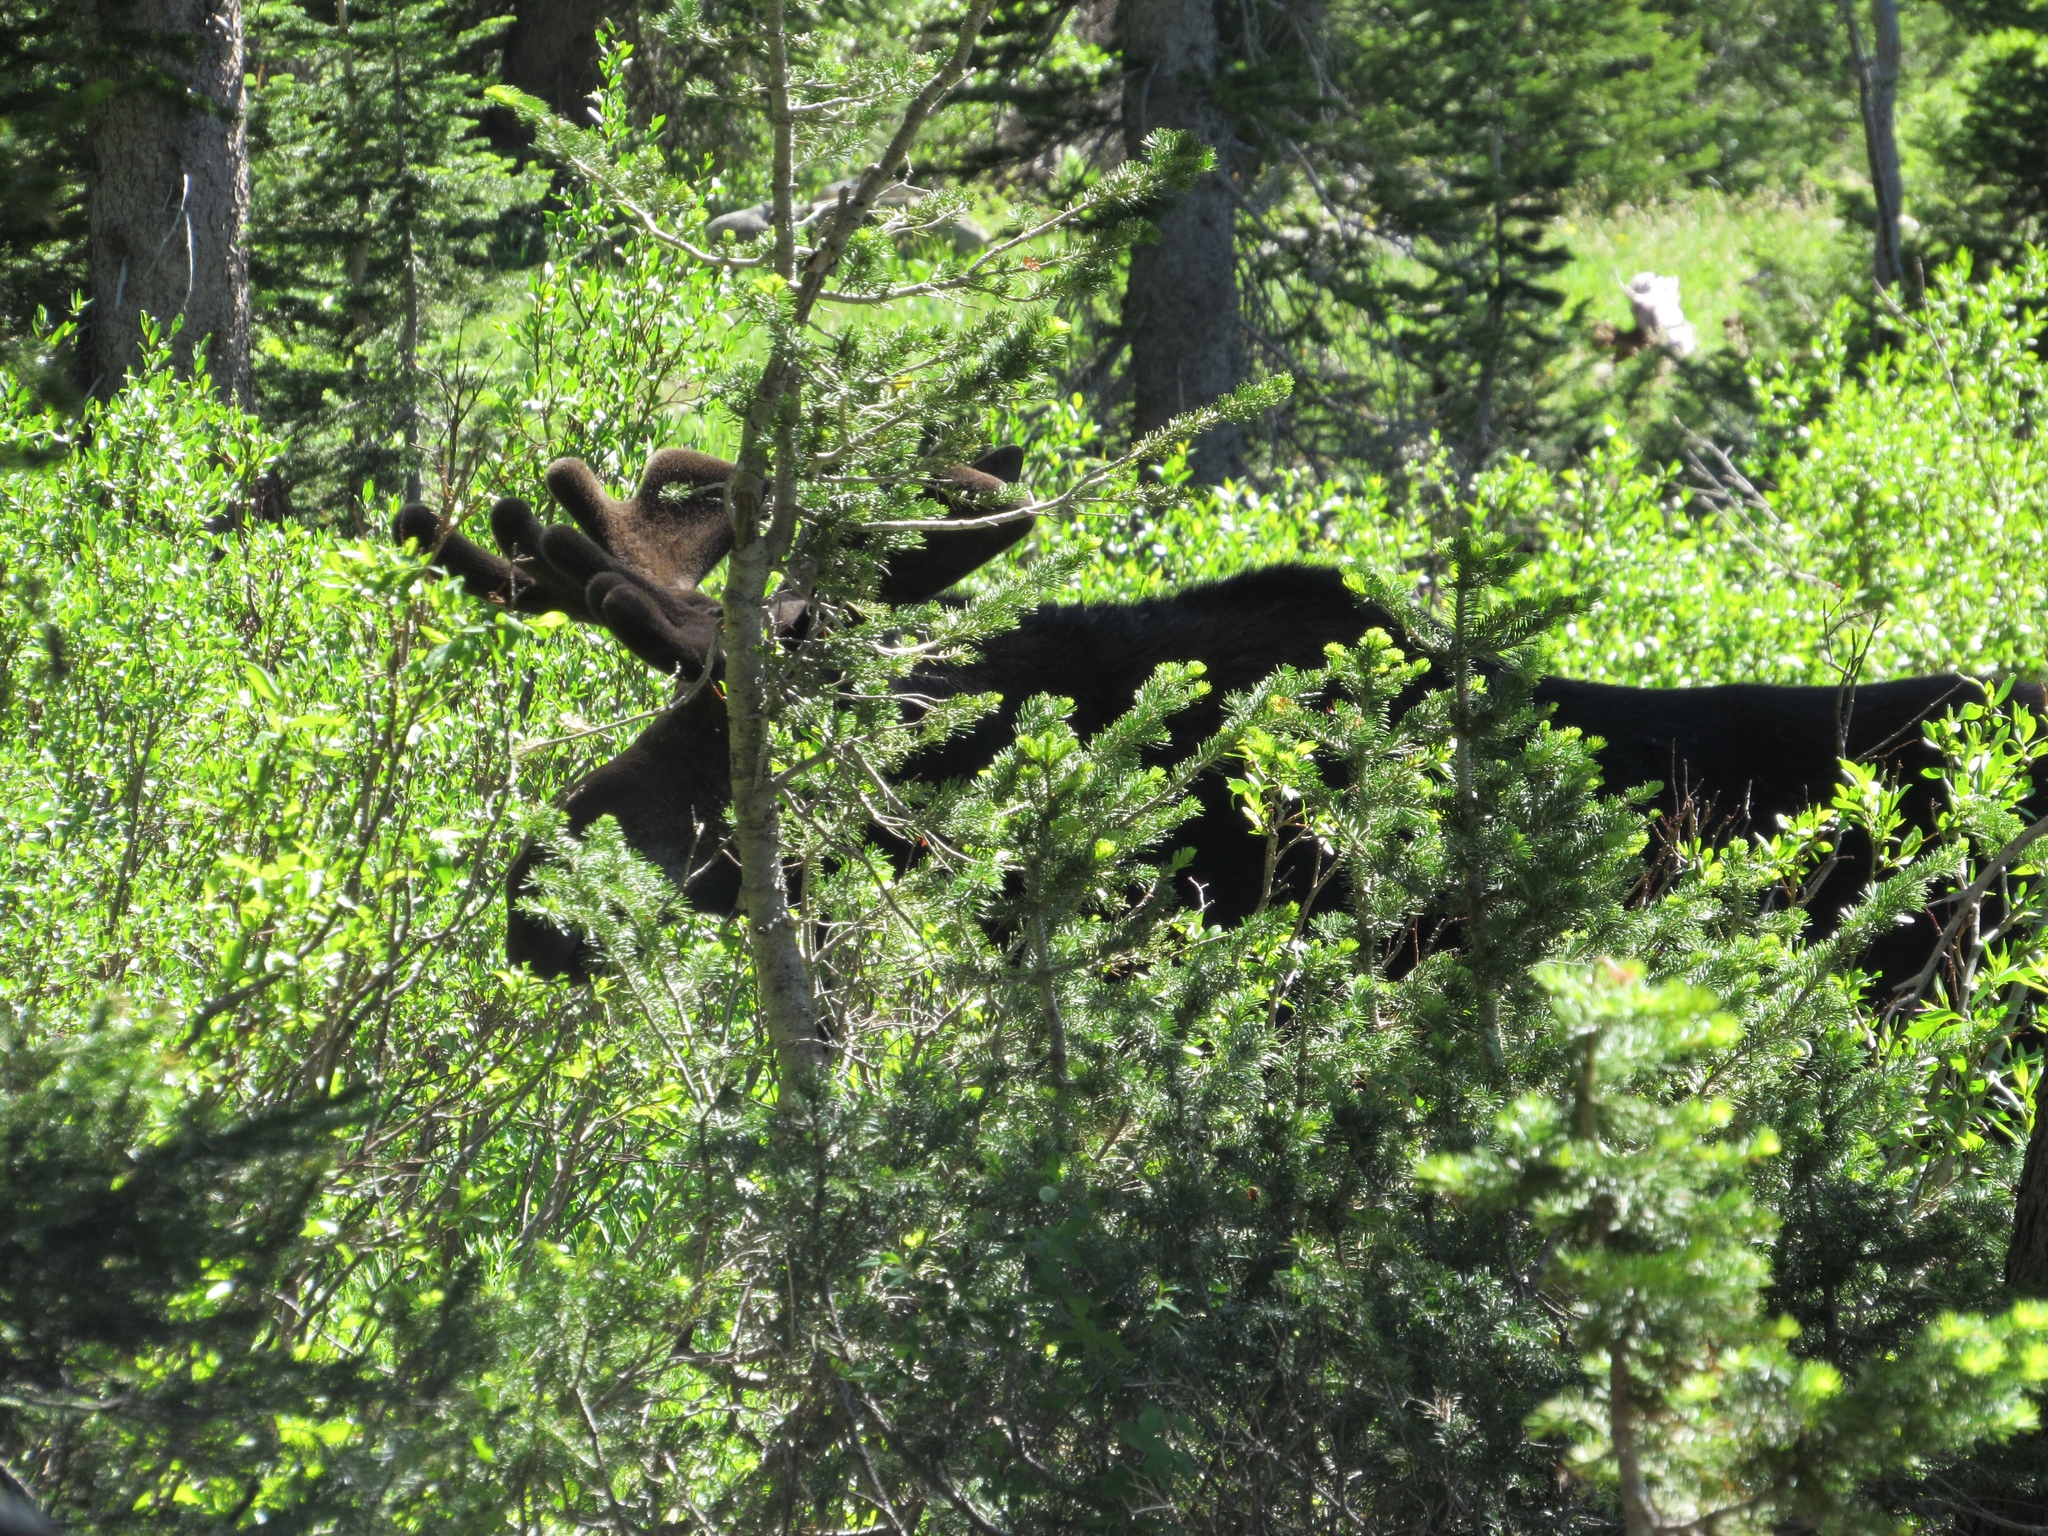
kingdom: Animalia
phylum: Chordata
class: Mammalia
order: Artiodactyla
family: Cervidae
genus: Alces
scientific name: Alces alces
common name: Moose
